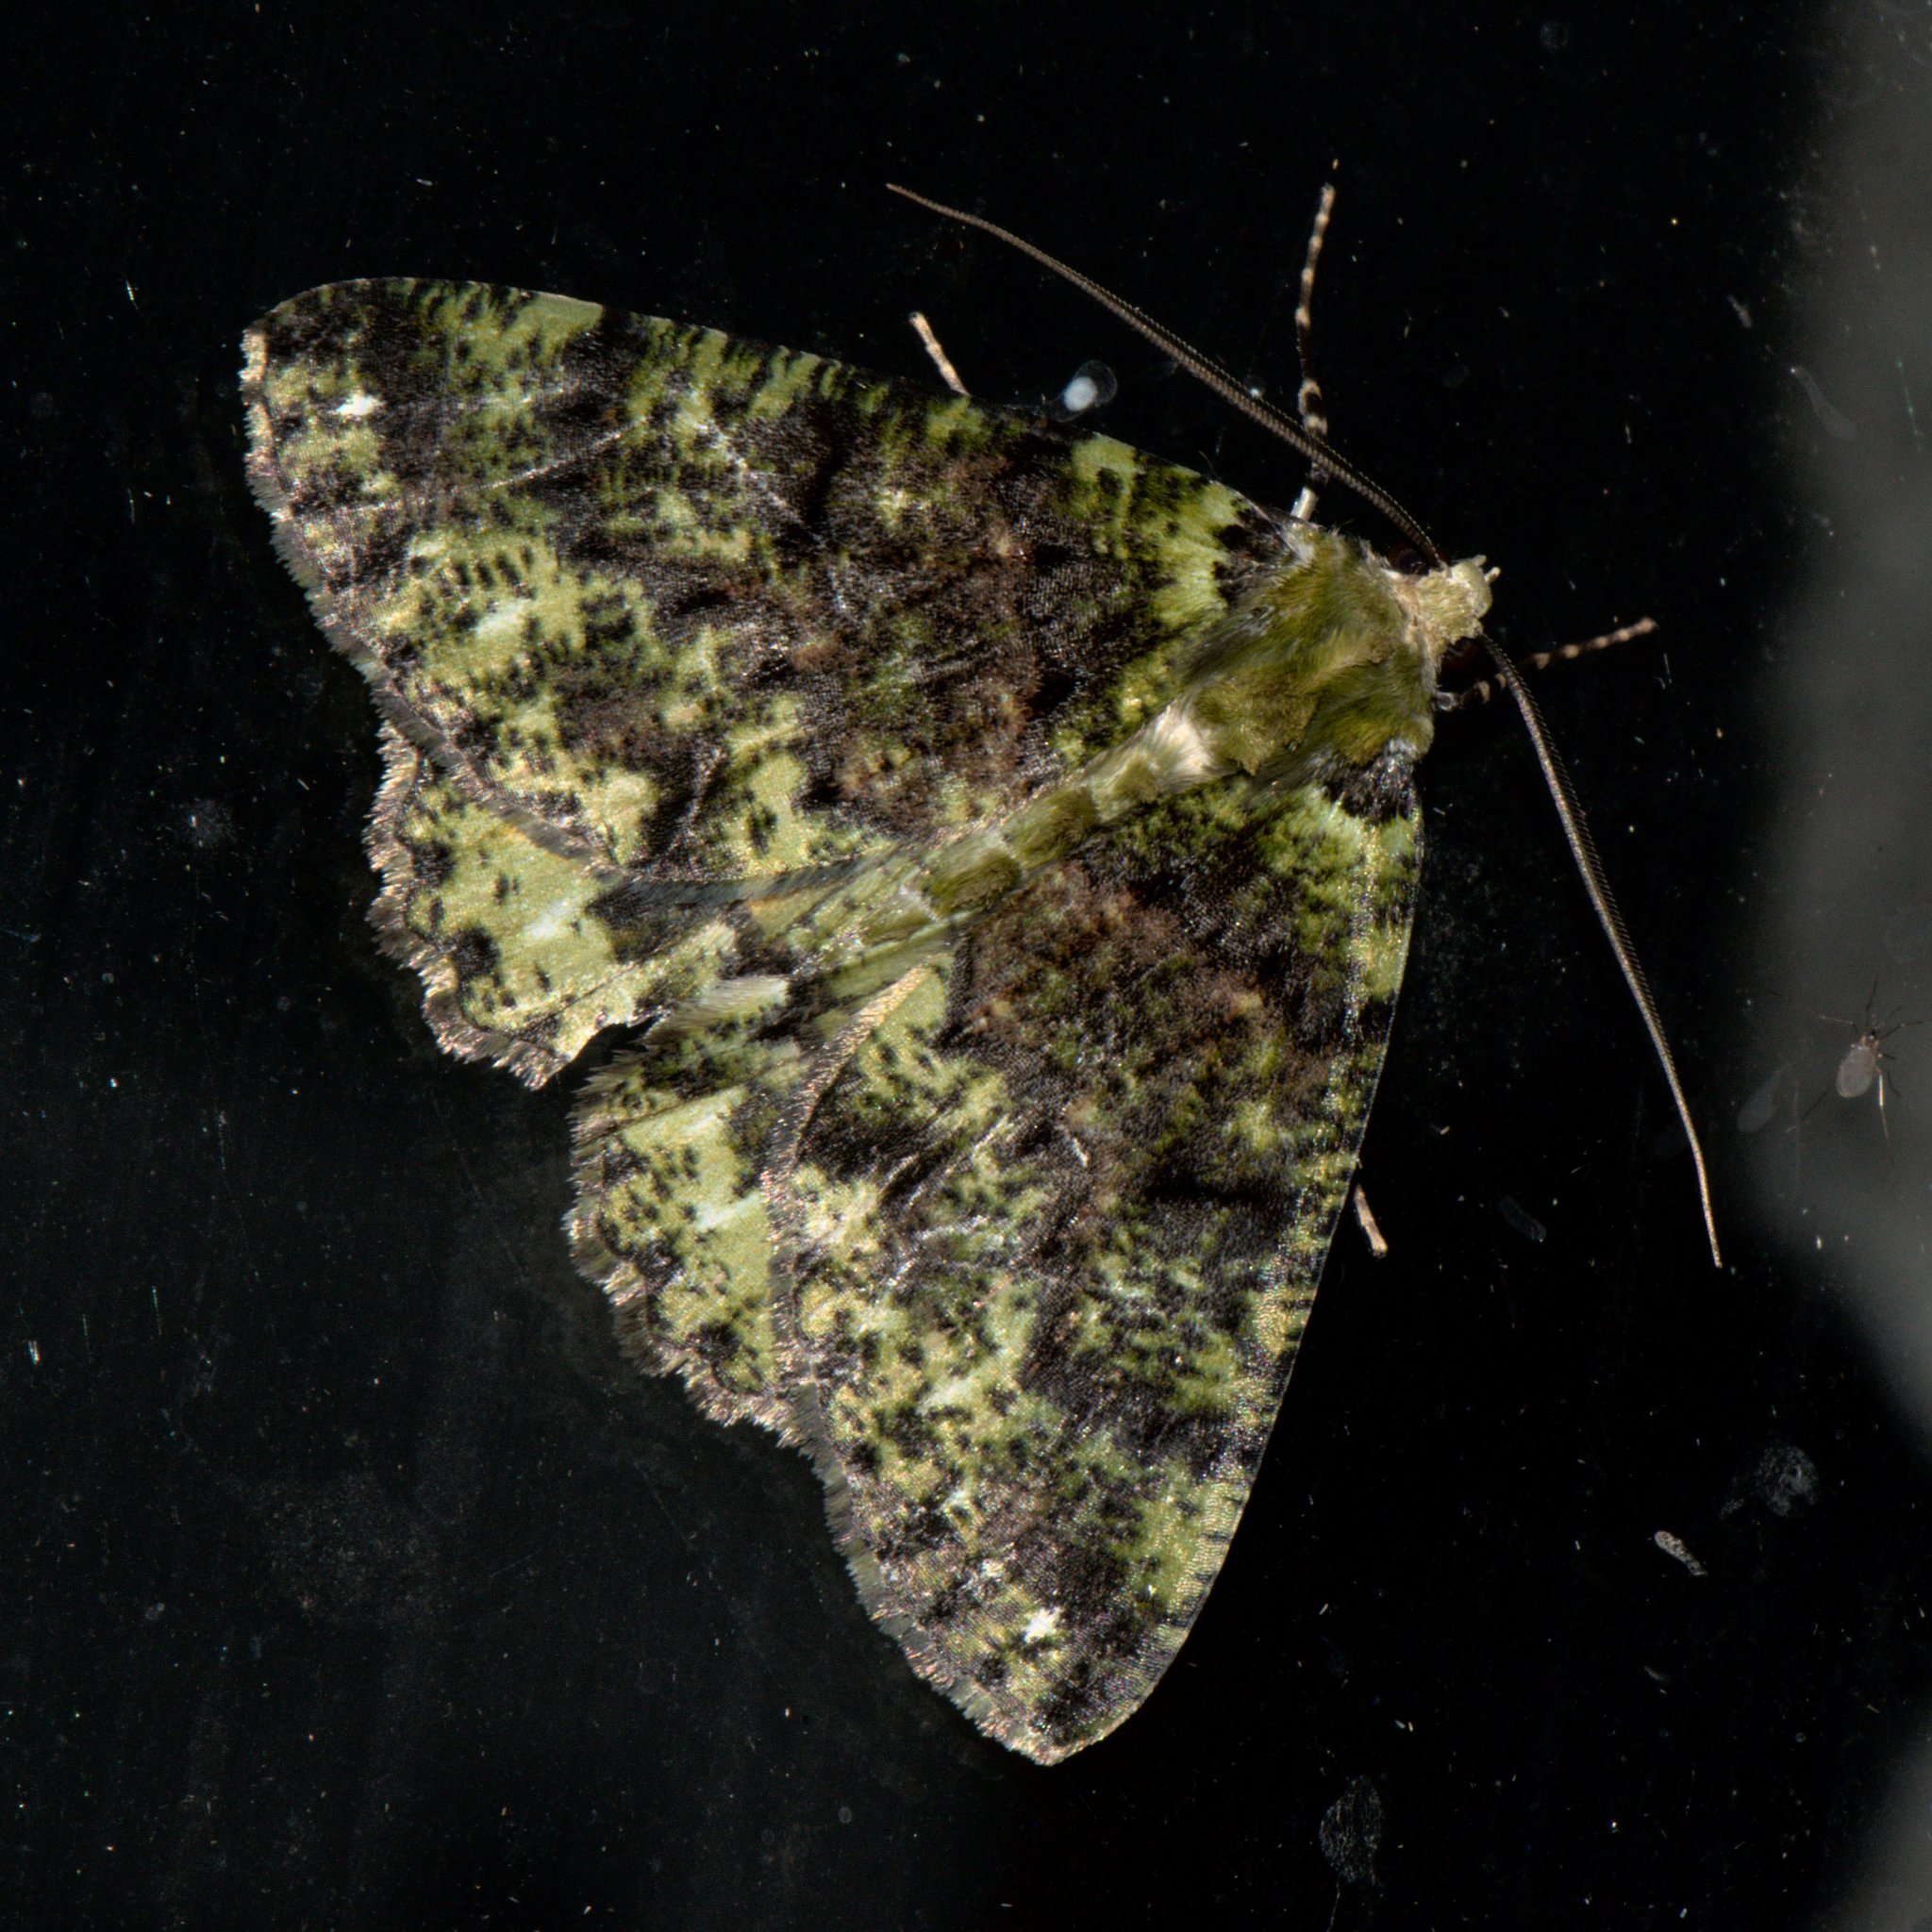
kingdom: Animalia
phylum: Arthropoda
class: Insecta
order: Lepidoptera
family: Geometridae
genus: Dindicodes
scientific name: Dindicodes moelleri
